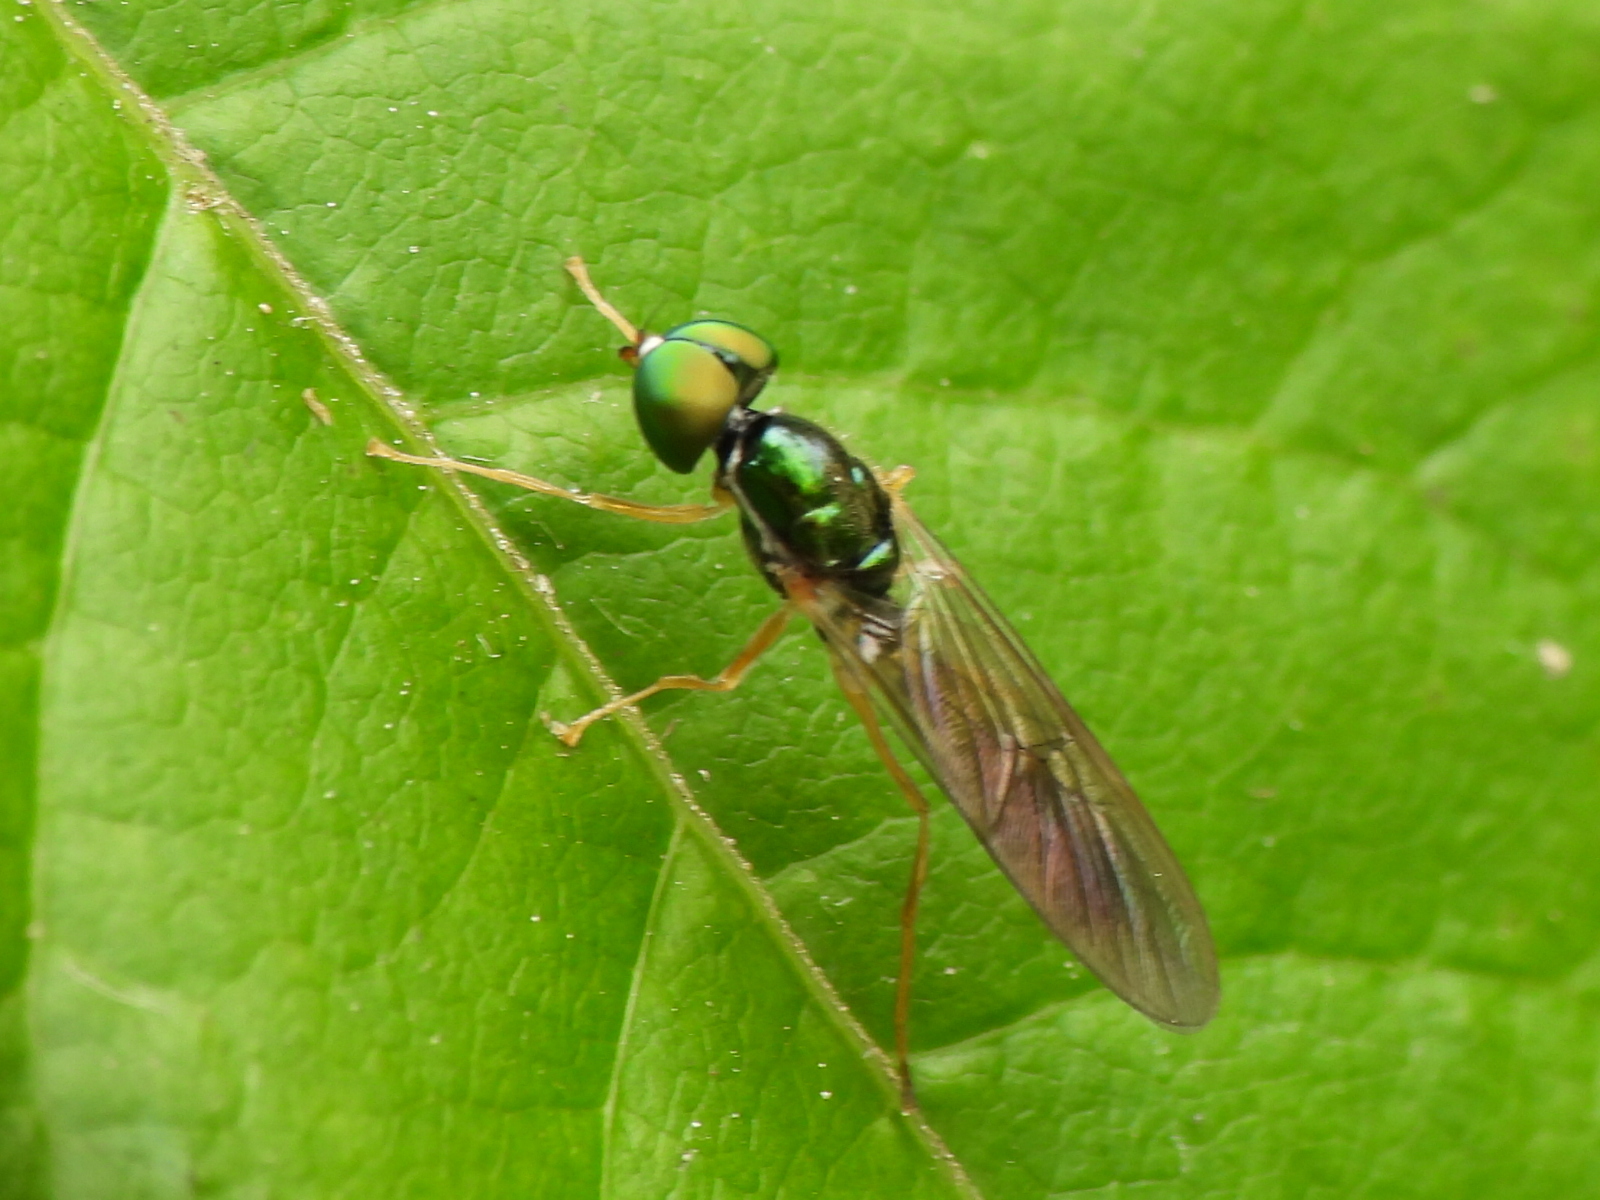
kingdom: Animalia
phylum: Arthropoda
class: Insecta
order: Diptera
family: Stratiomyidae
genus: Sargus
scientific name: Sargus fasciatus
